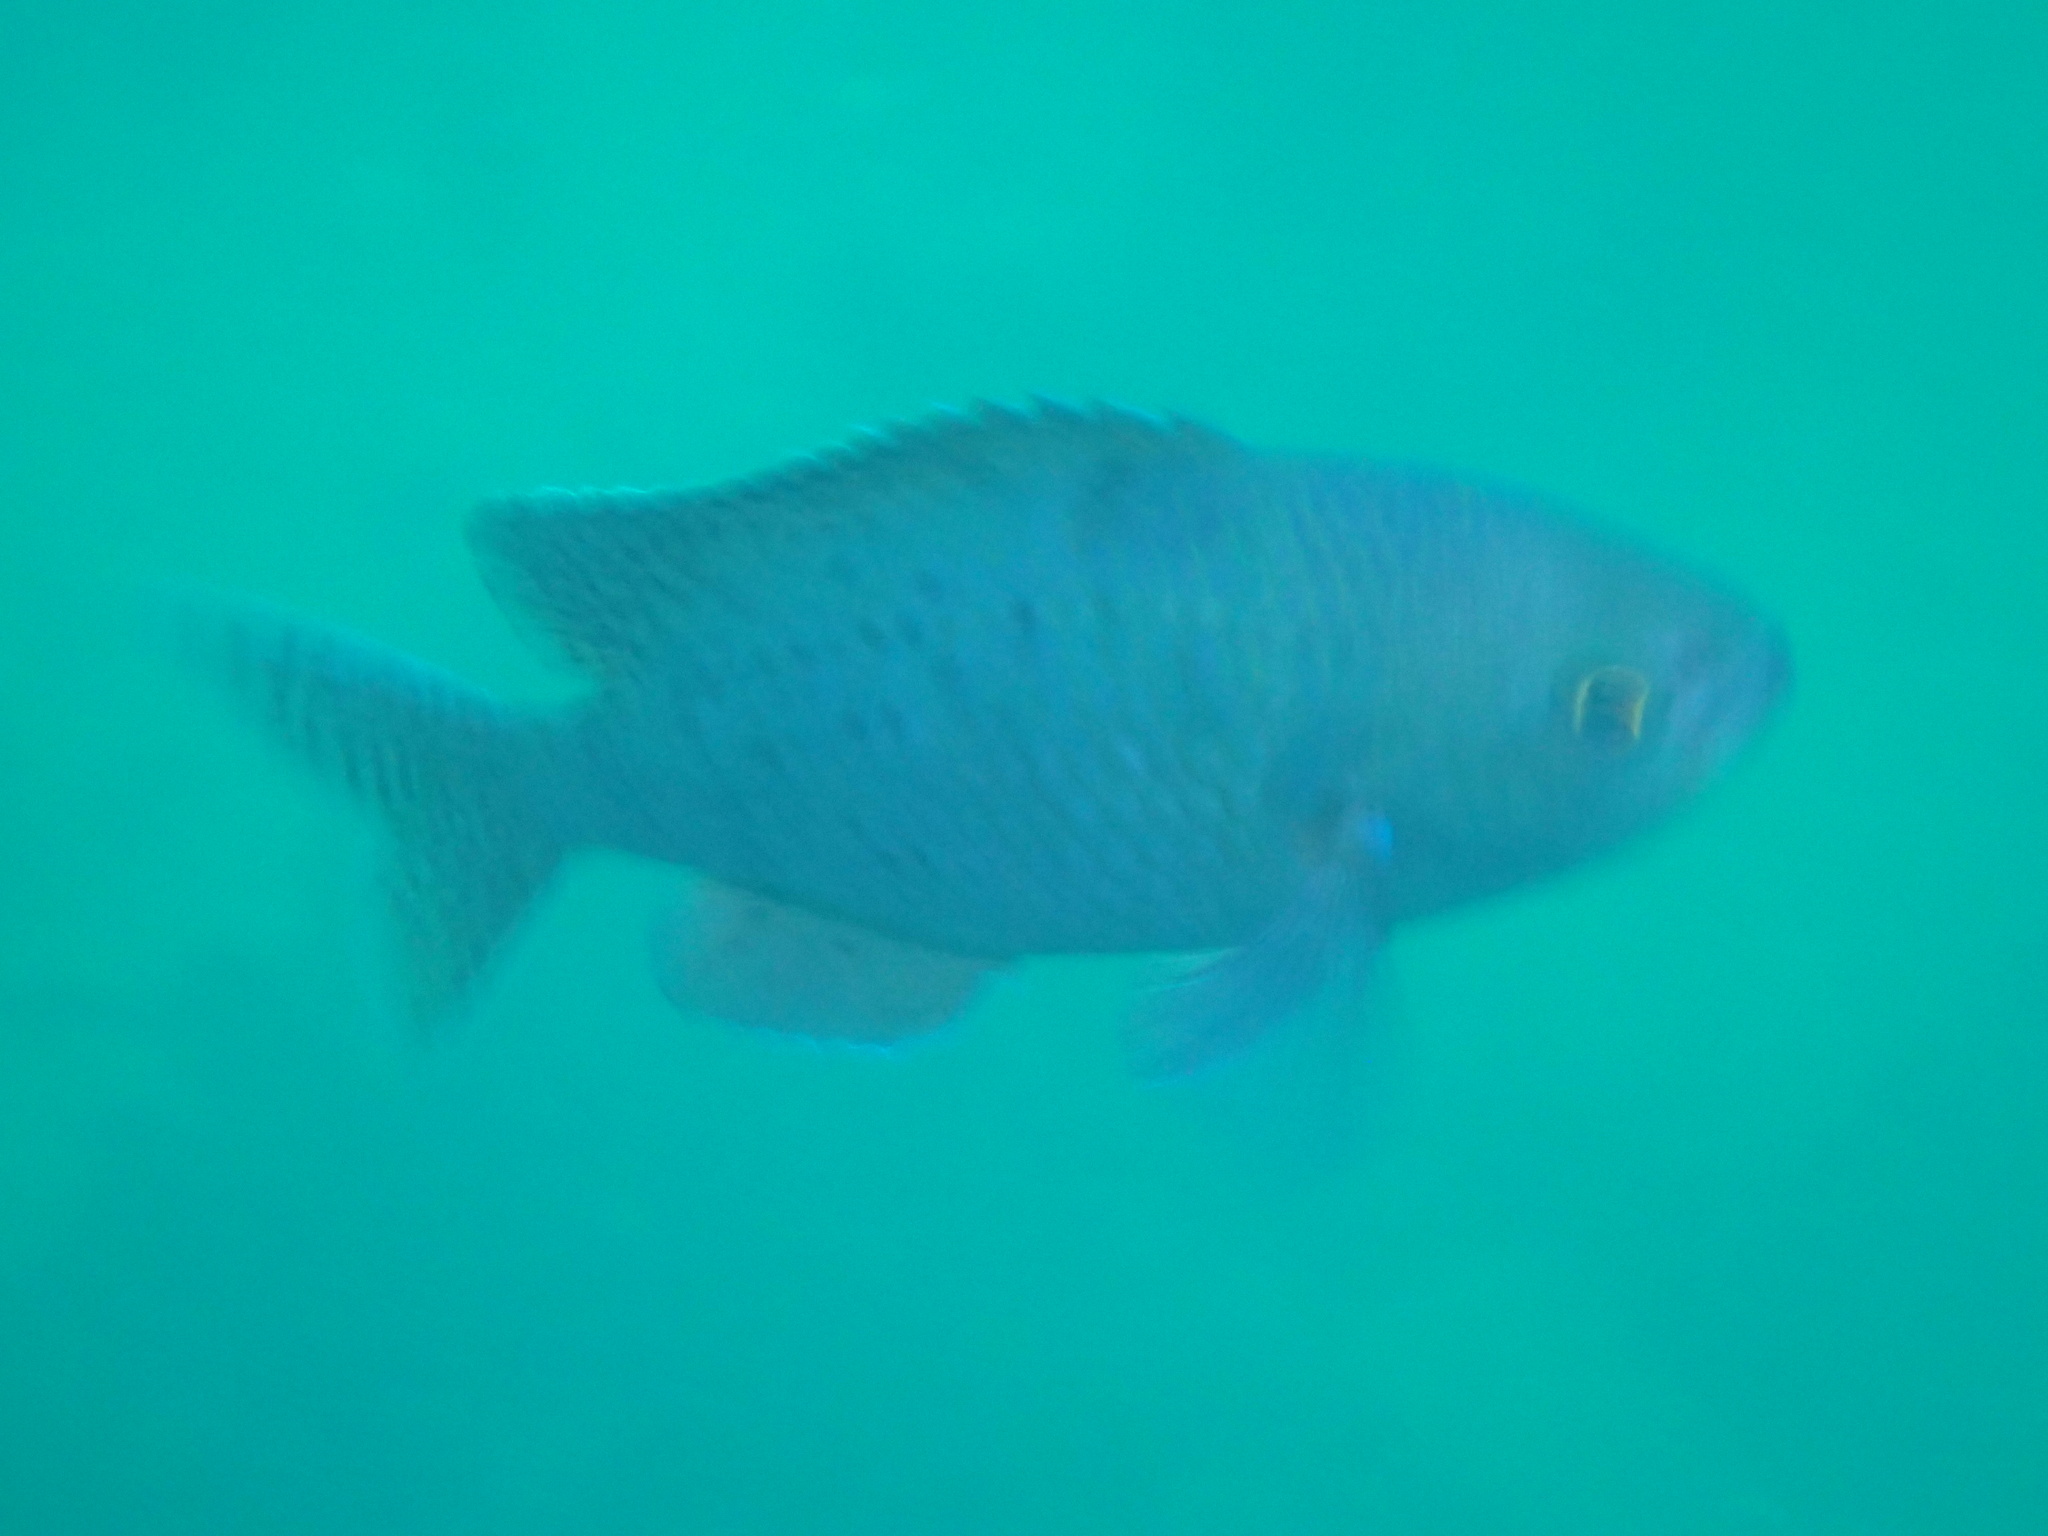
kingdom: Animalia
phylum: Chordata
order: Perciformes
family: Pomacentridae
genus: Chromis
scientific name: Chromis punctipinnis
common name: Blacksmith
